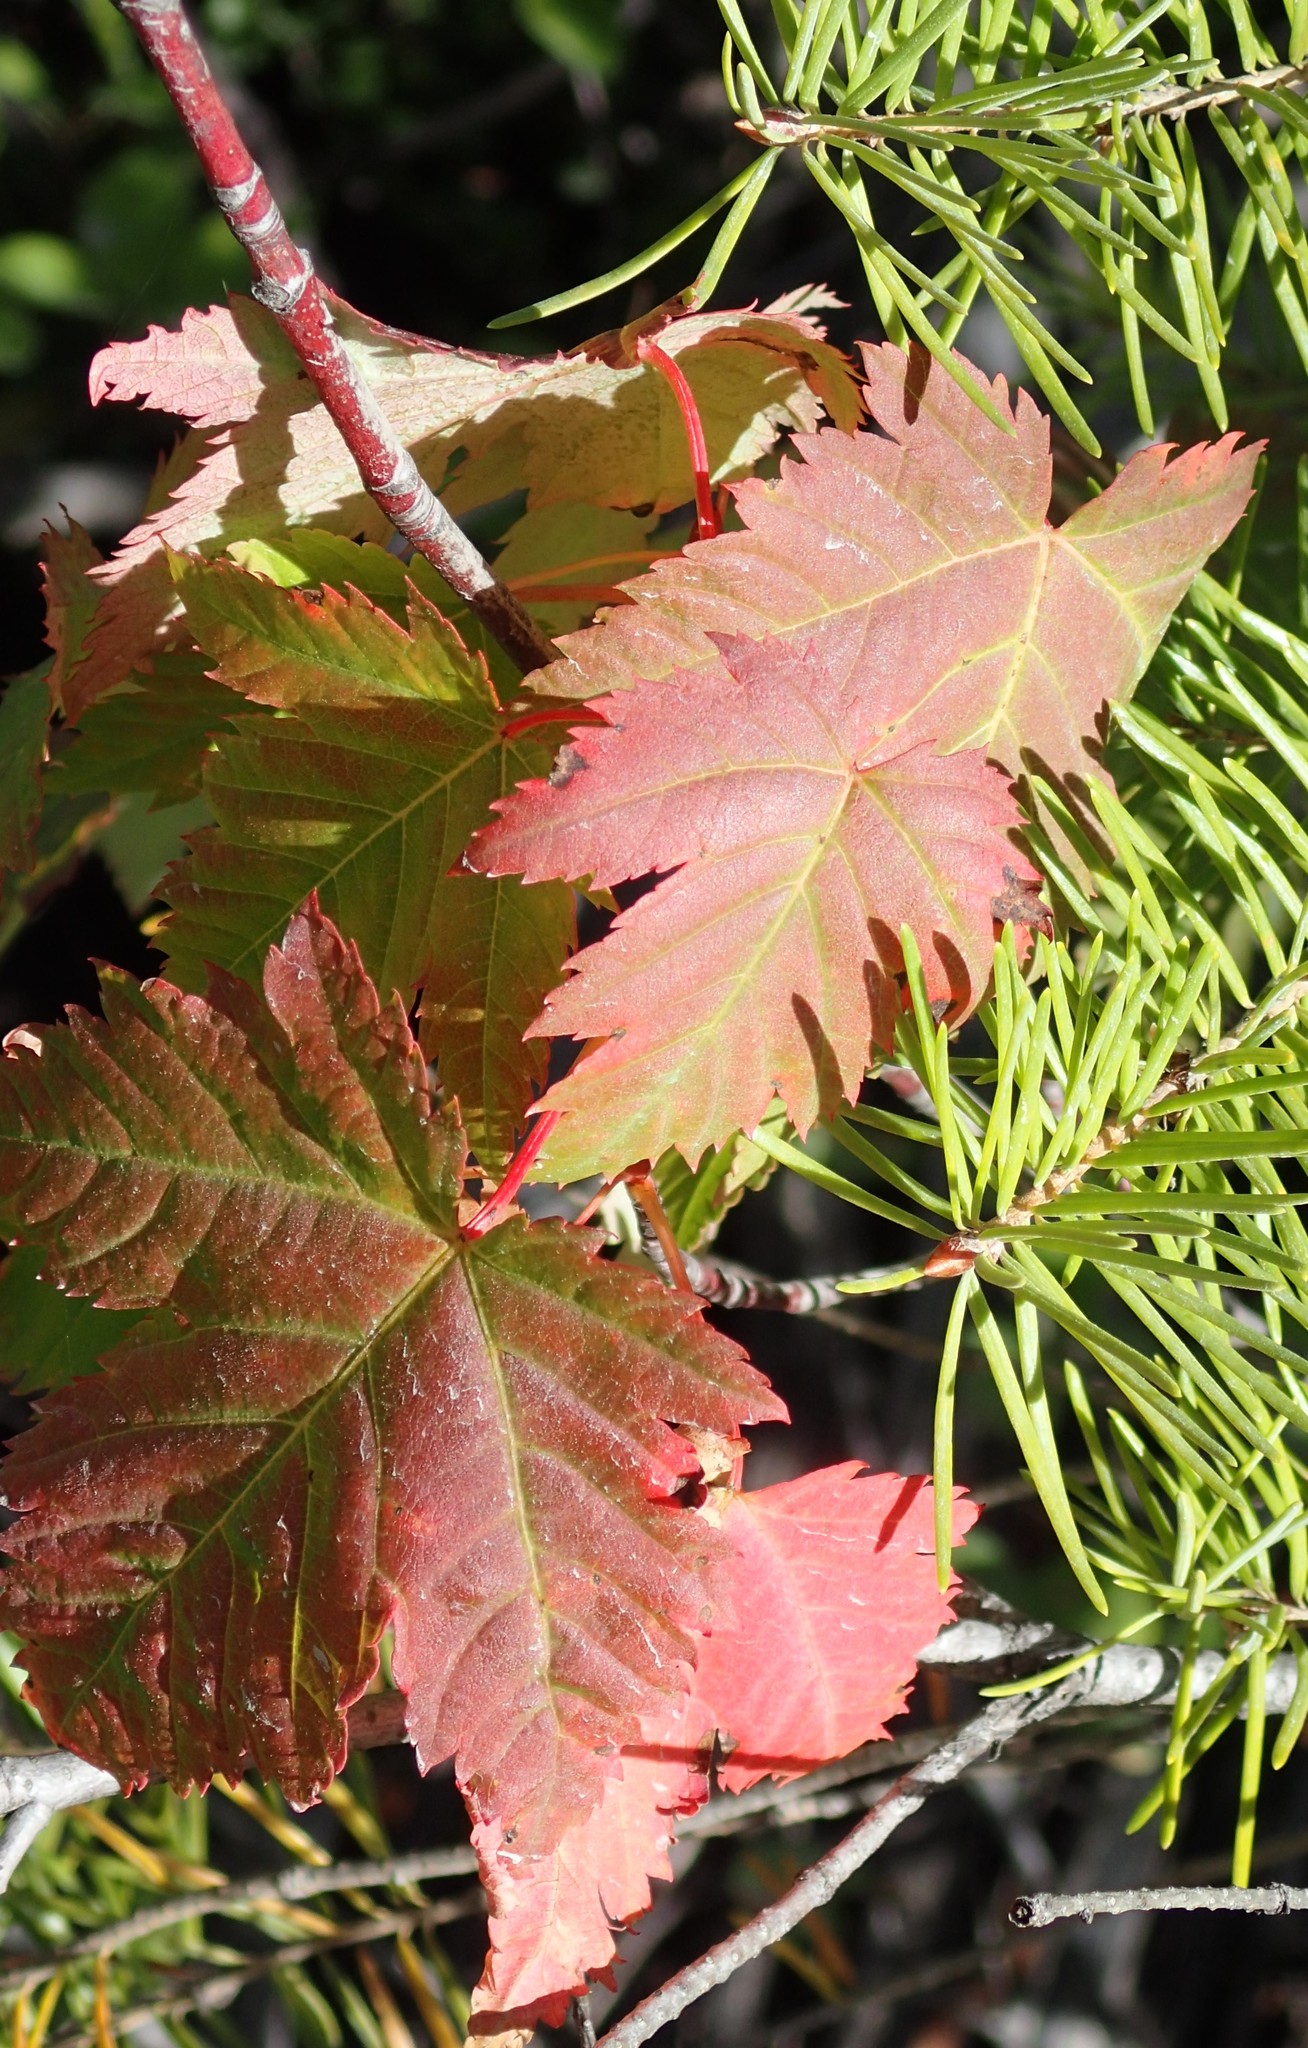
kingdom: Plantae
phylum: Tracheophyta
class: Magnoliopsida
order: Sapindales
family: Sapindaceae
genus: Acer
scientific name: Acer glabrum
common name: Rocky mountain maple
